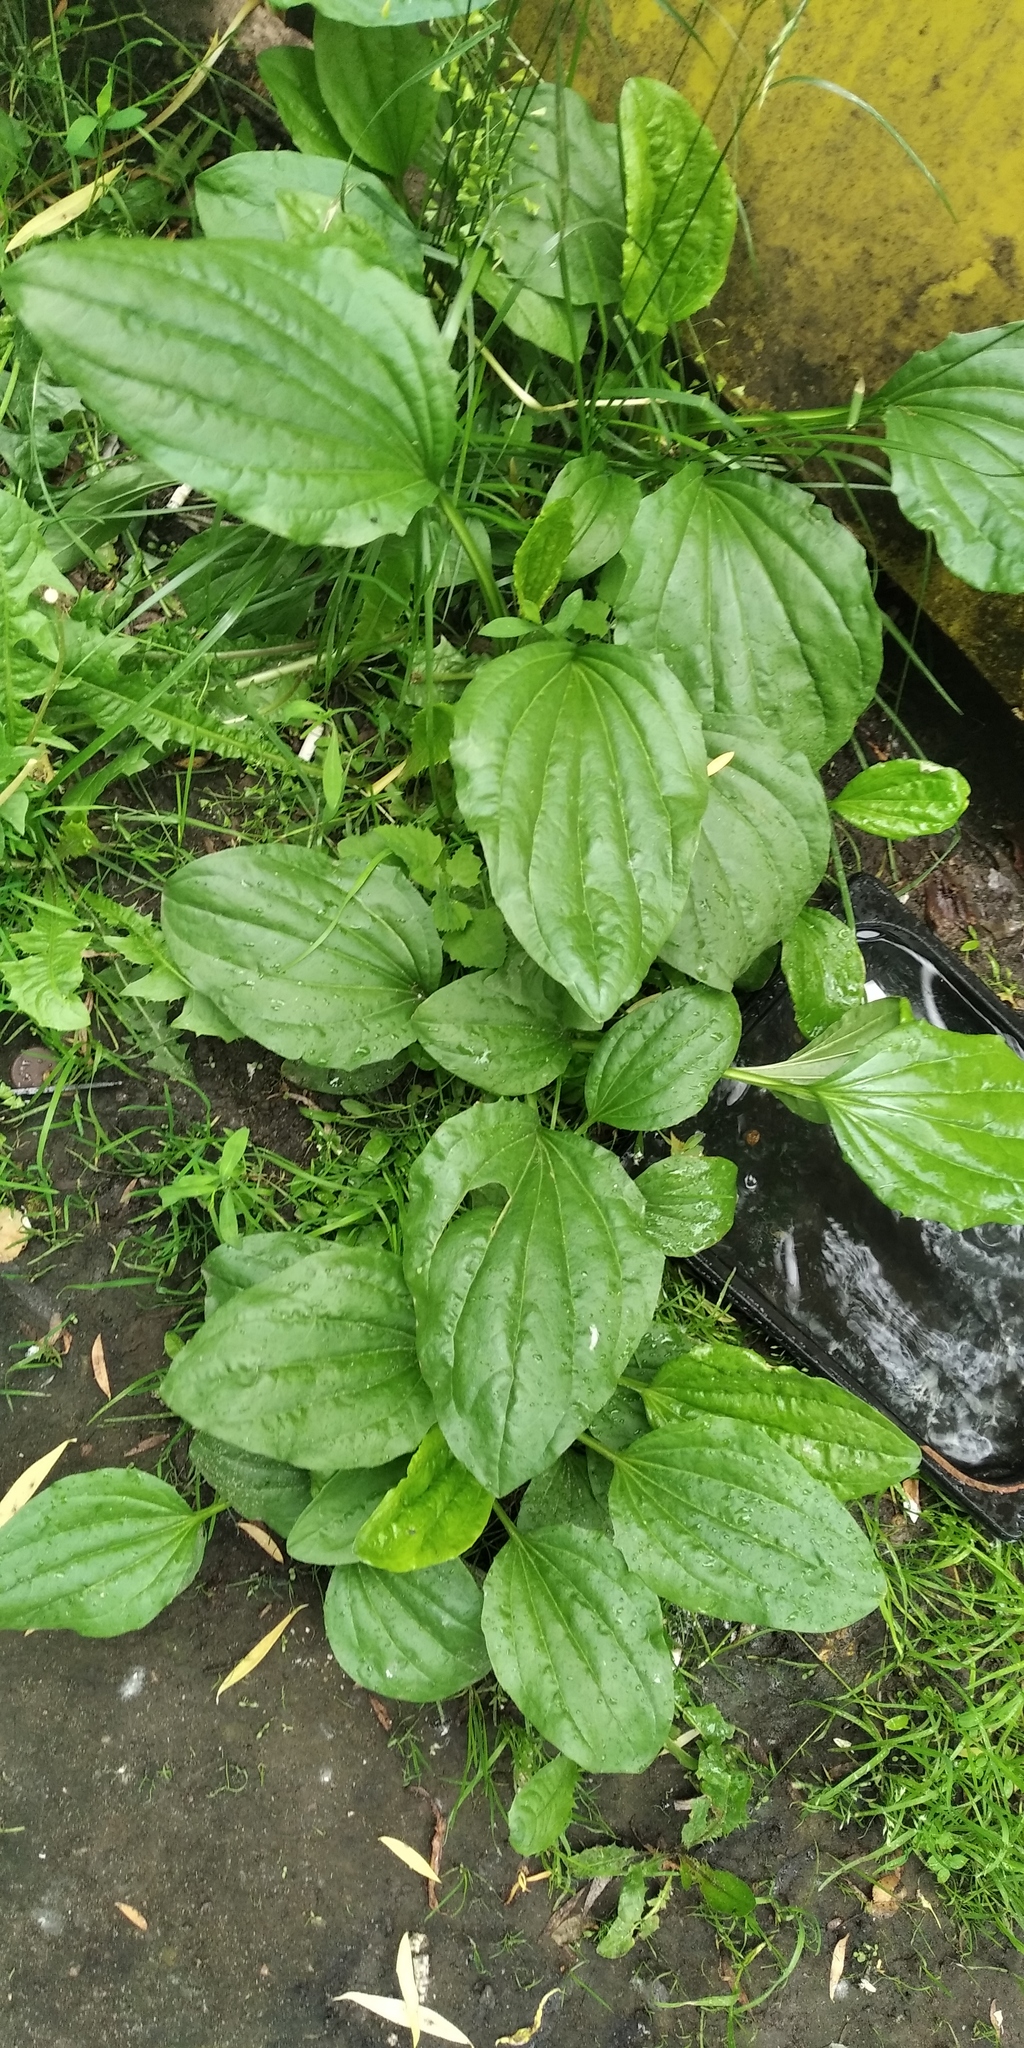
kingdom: Plantae
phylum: Tracheophyta
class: Magnoliopsida
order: Lamiales
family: Plantaginaceae
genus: Plantago
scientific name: Plantago major
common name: Common plantain
